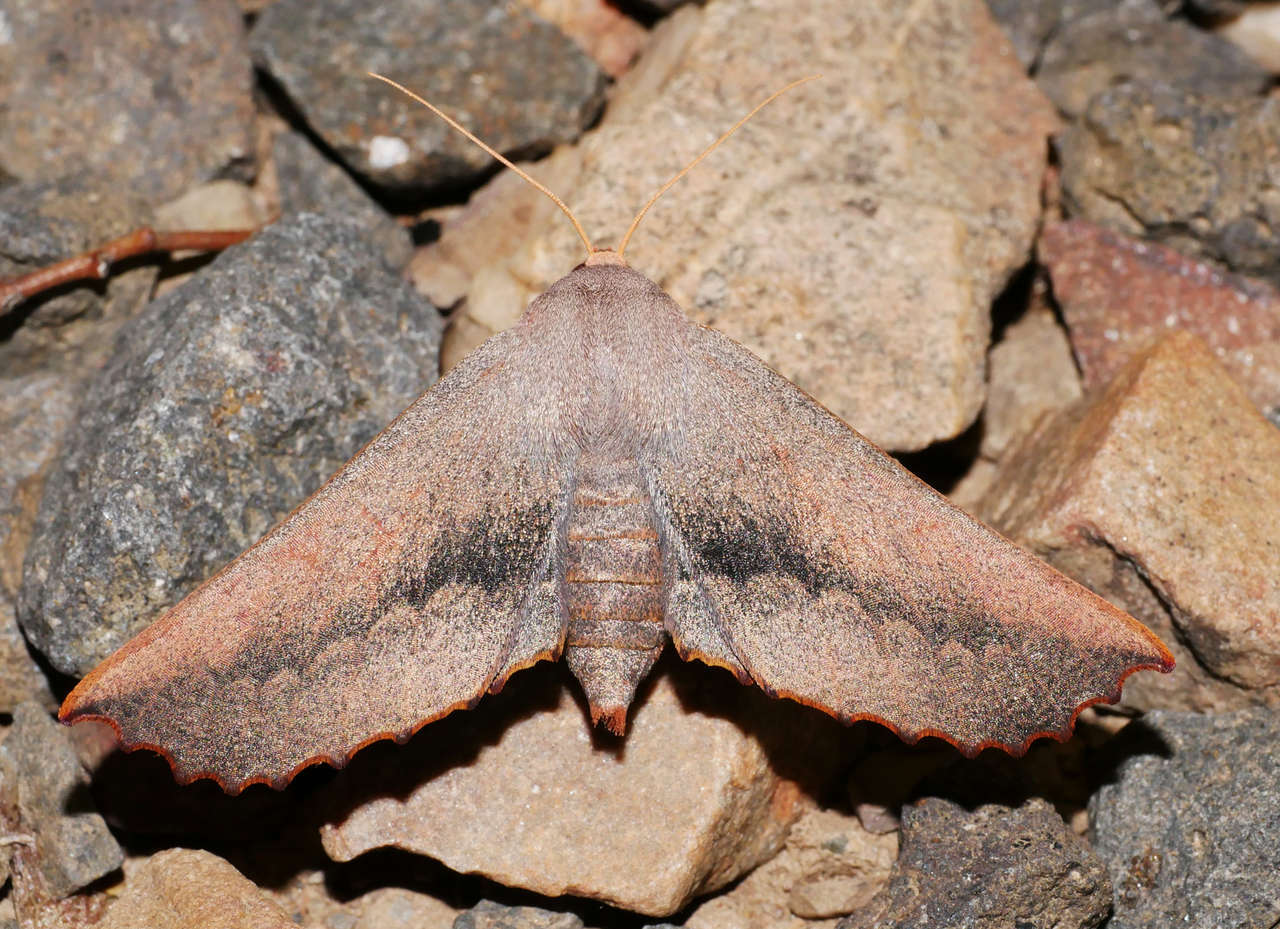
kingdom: Animalia
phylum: Arthropoda
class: Insecta
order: Lepidoptera
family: Geometridae
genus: Monoctenia
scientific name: Monoctenia smerintharia
